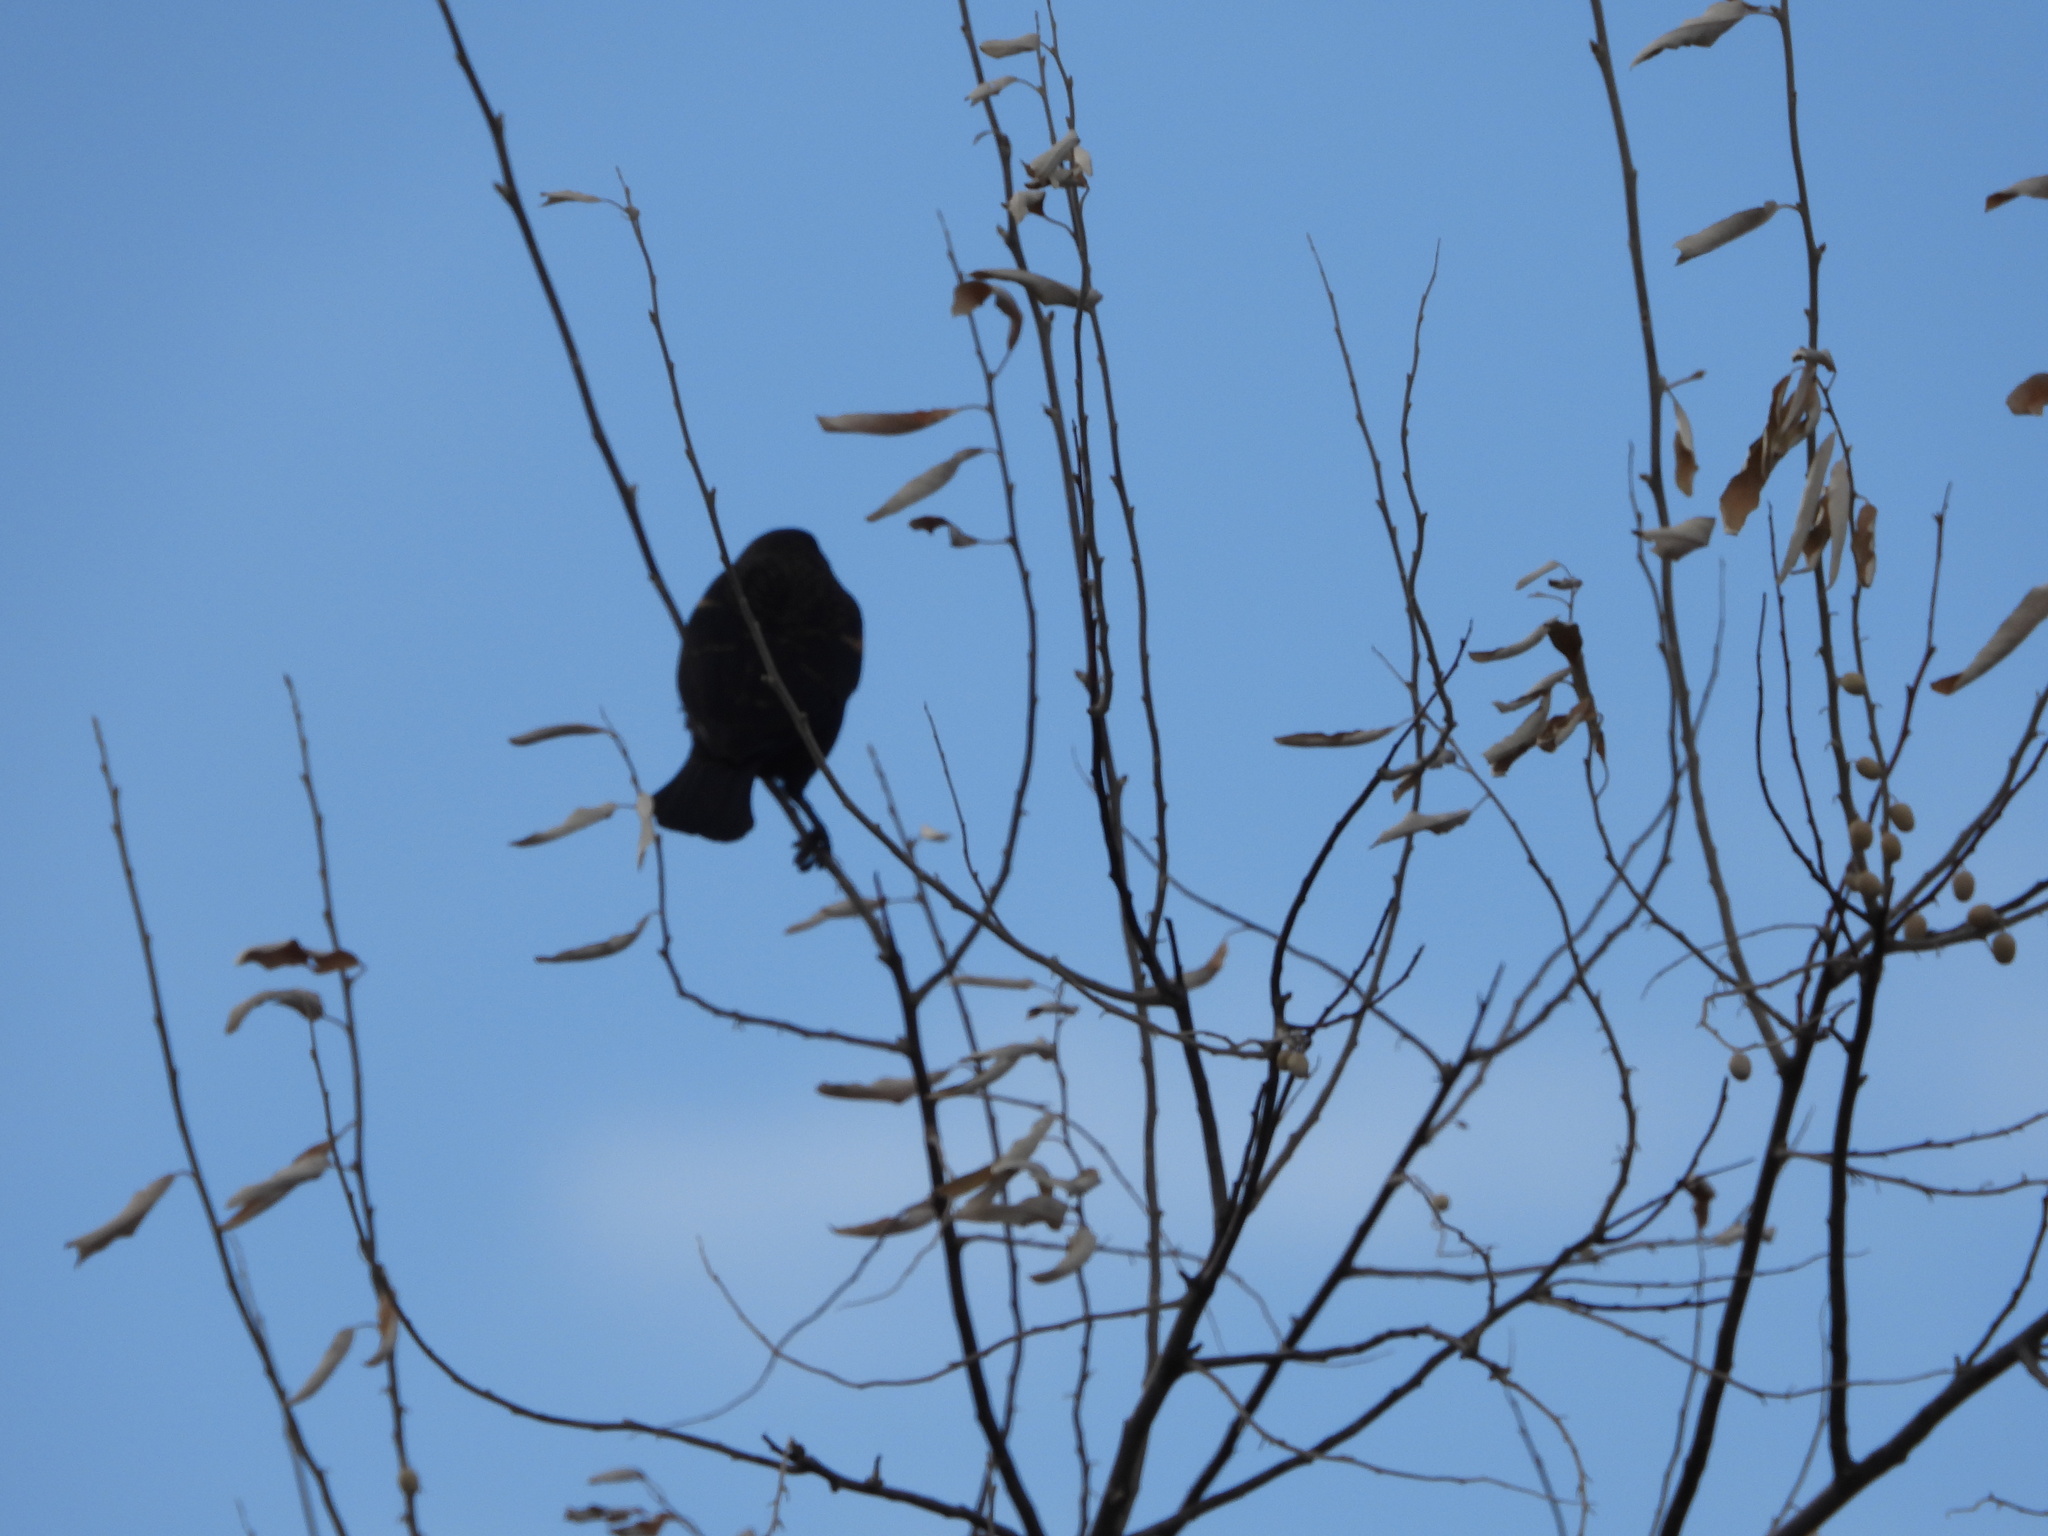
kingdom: Animalia
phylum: Chordata
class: Aves
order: Passeriformes
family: Icteridae
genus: Agelaius
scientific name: Agelaius phoeniceus
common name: Red-winged blackbird
